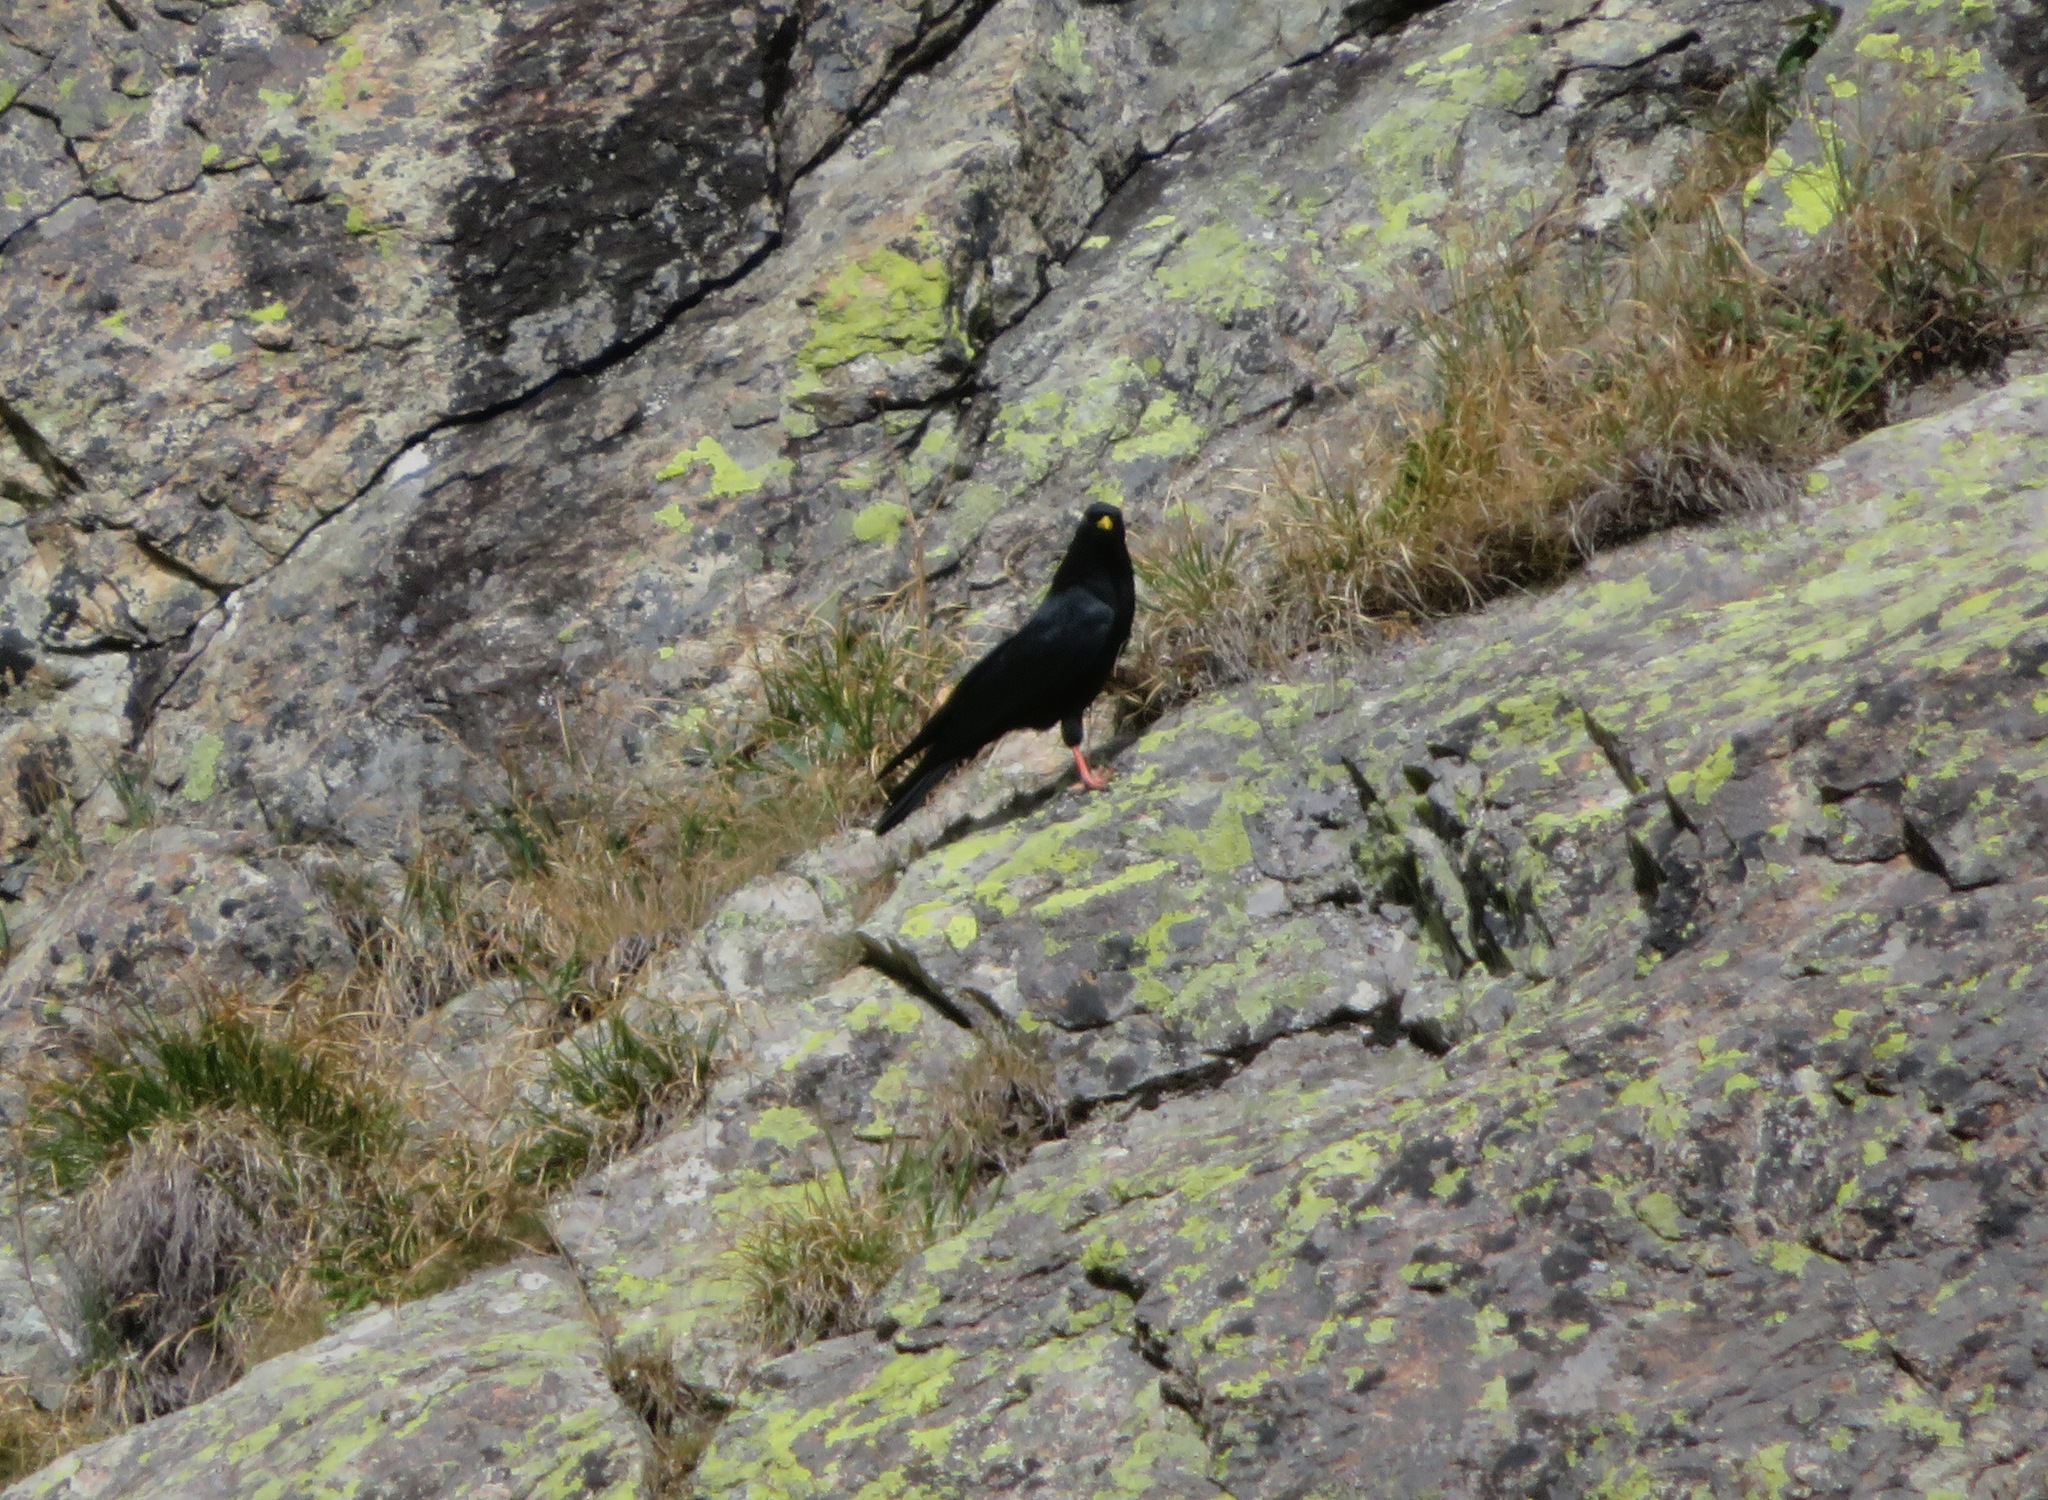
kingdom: Animalia
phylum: Chordata
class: Aves
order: Passeriformes
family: Corvidae
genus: Pyrrhocorax
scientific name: Pyrrhocorax graculus
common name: Alpine chough
